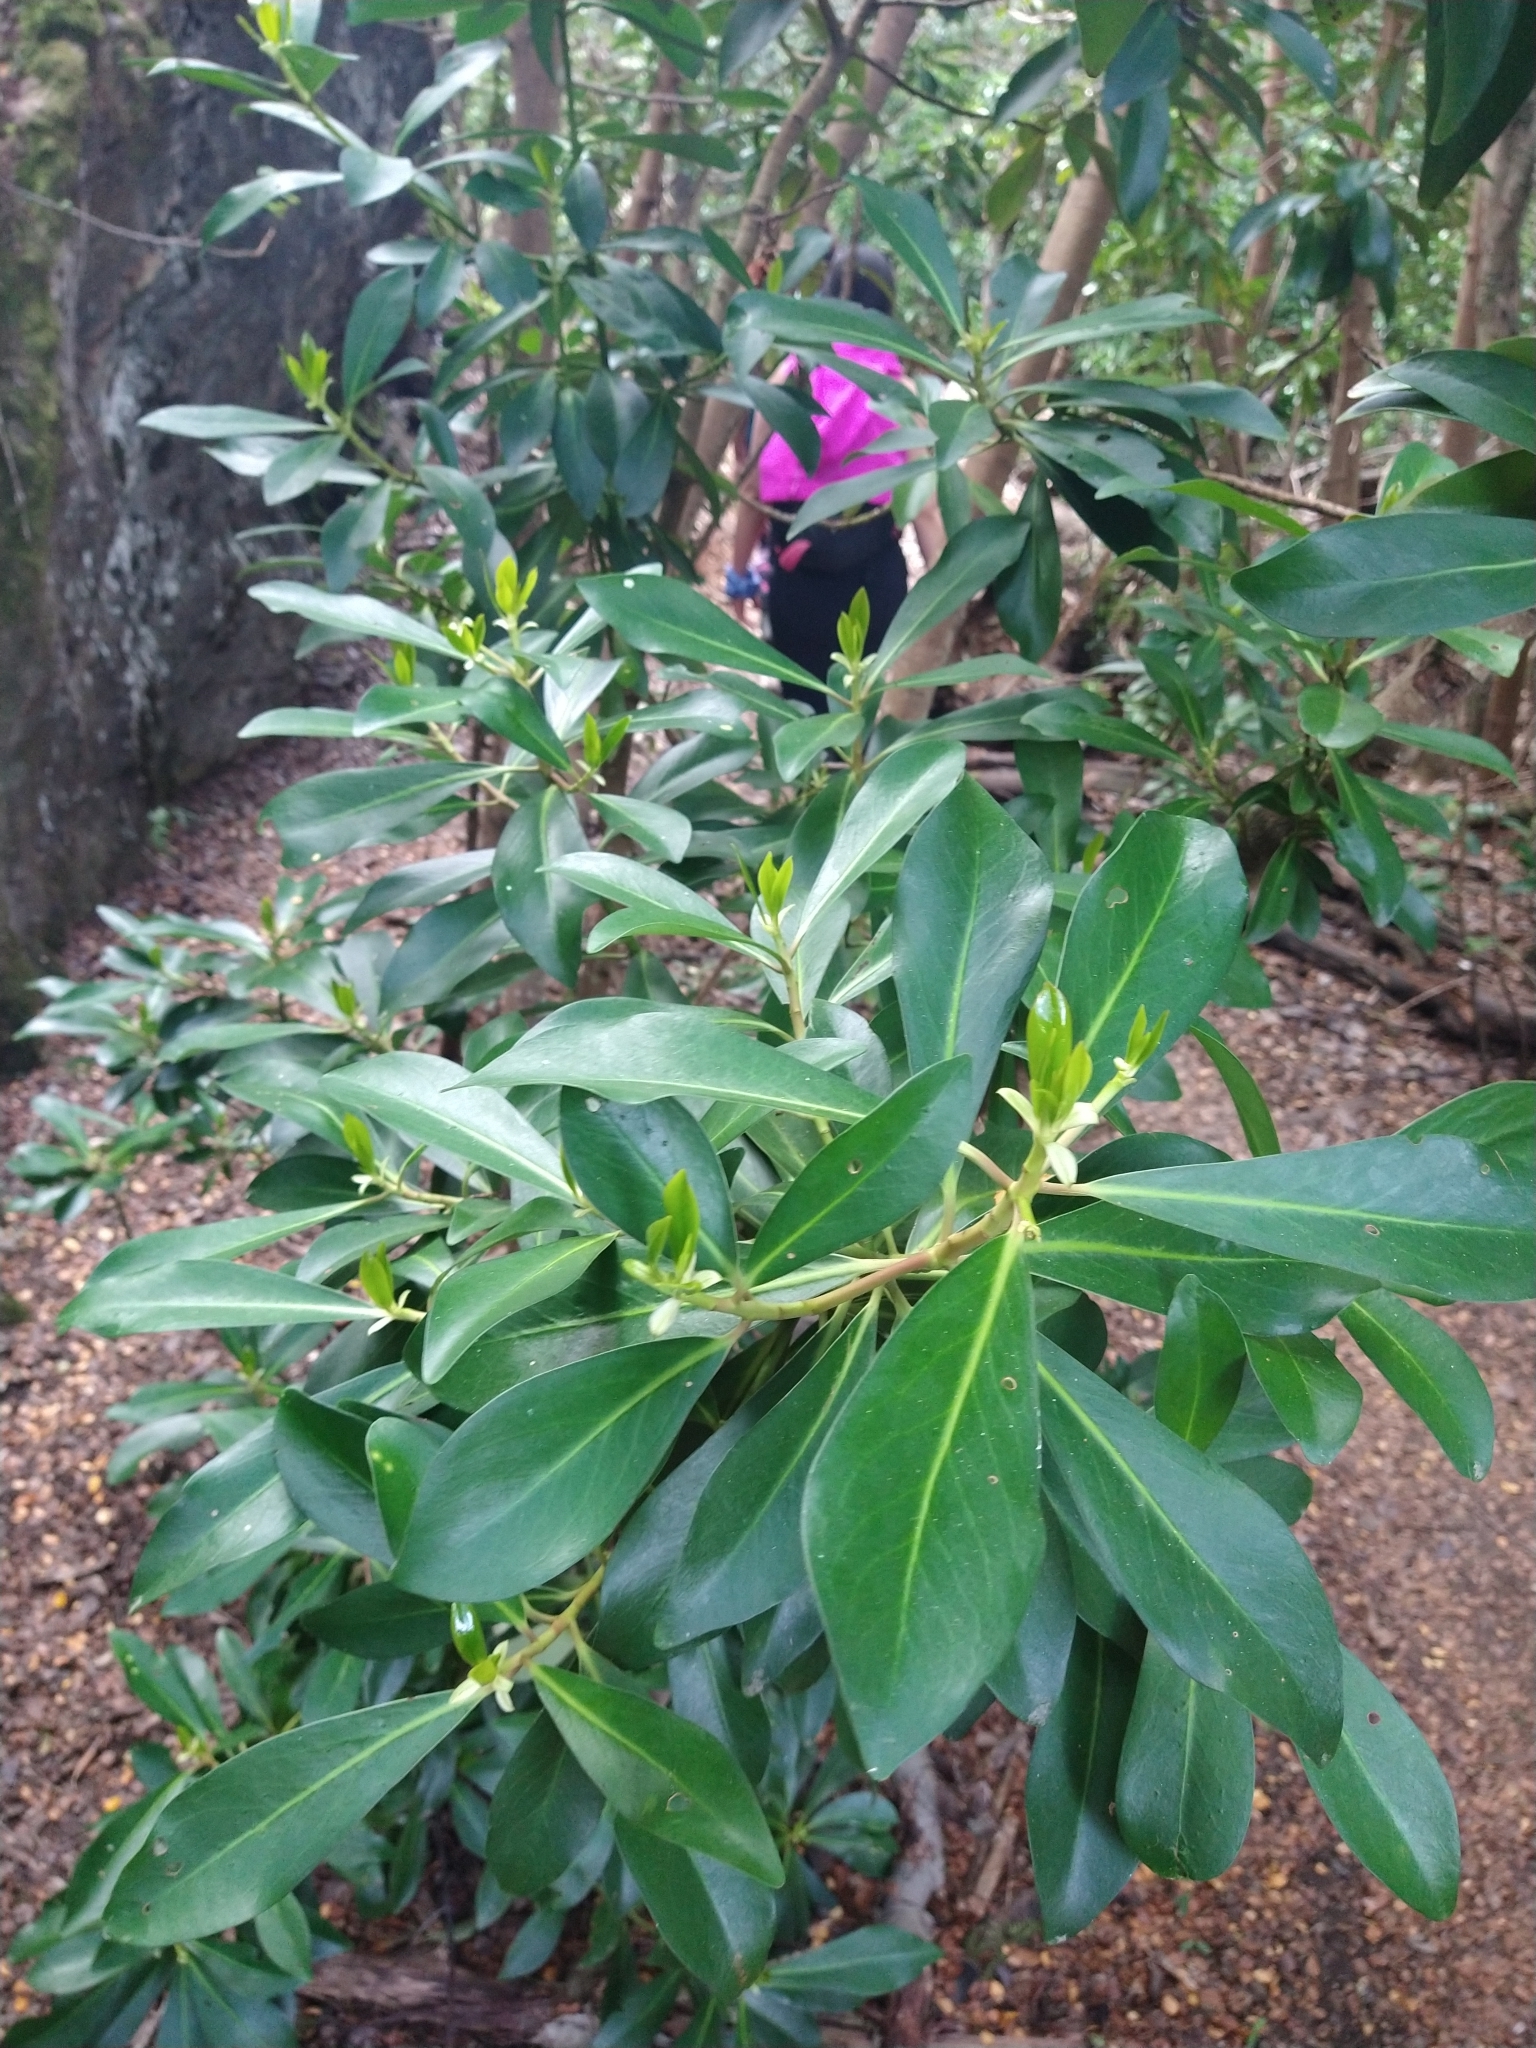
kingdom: Plantae
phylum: Tracheophyta
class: Magnoliopsida
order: Canellales
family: Winteraceae
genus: Drimys
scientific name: Drimys winteri
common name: Winter's-bark
